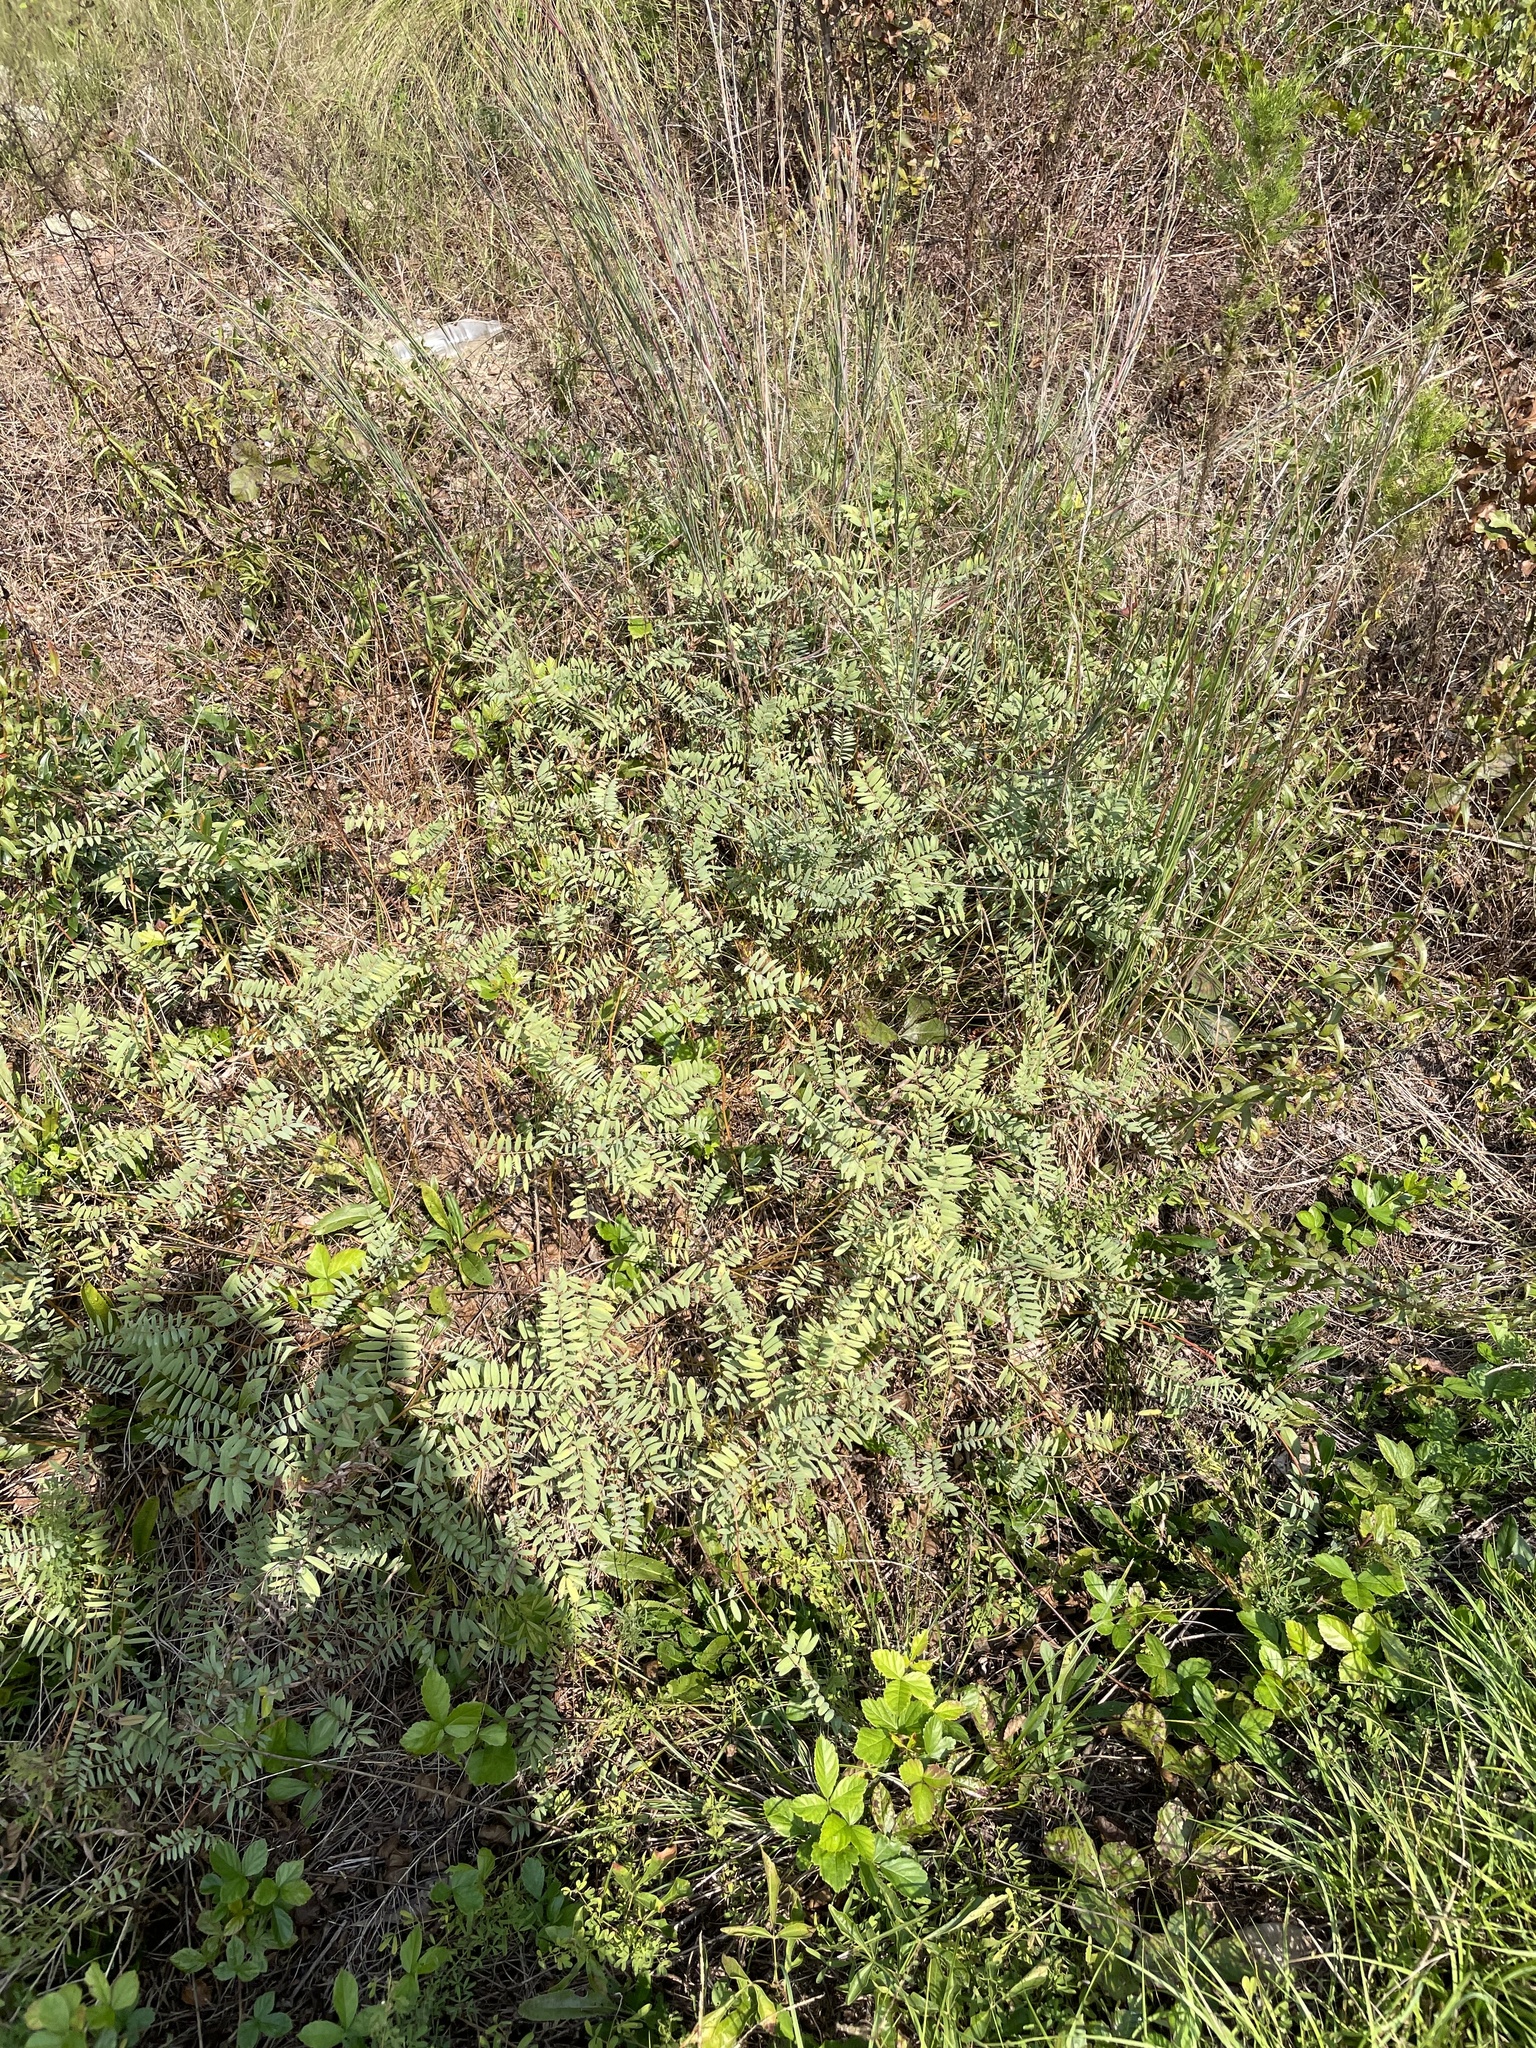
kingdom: Plantae
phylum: Tracheophyta
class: Magnoliopsida
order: Fabales
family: Fabaceae
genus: Tephrosia
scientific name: Tephrosia virginiana
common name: Rabbit-pea
